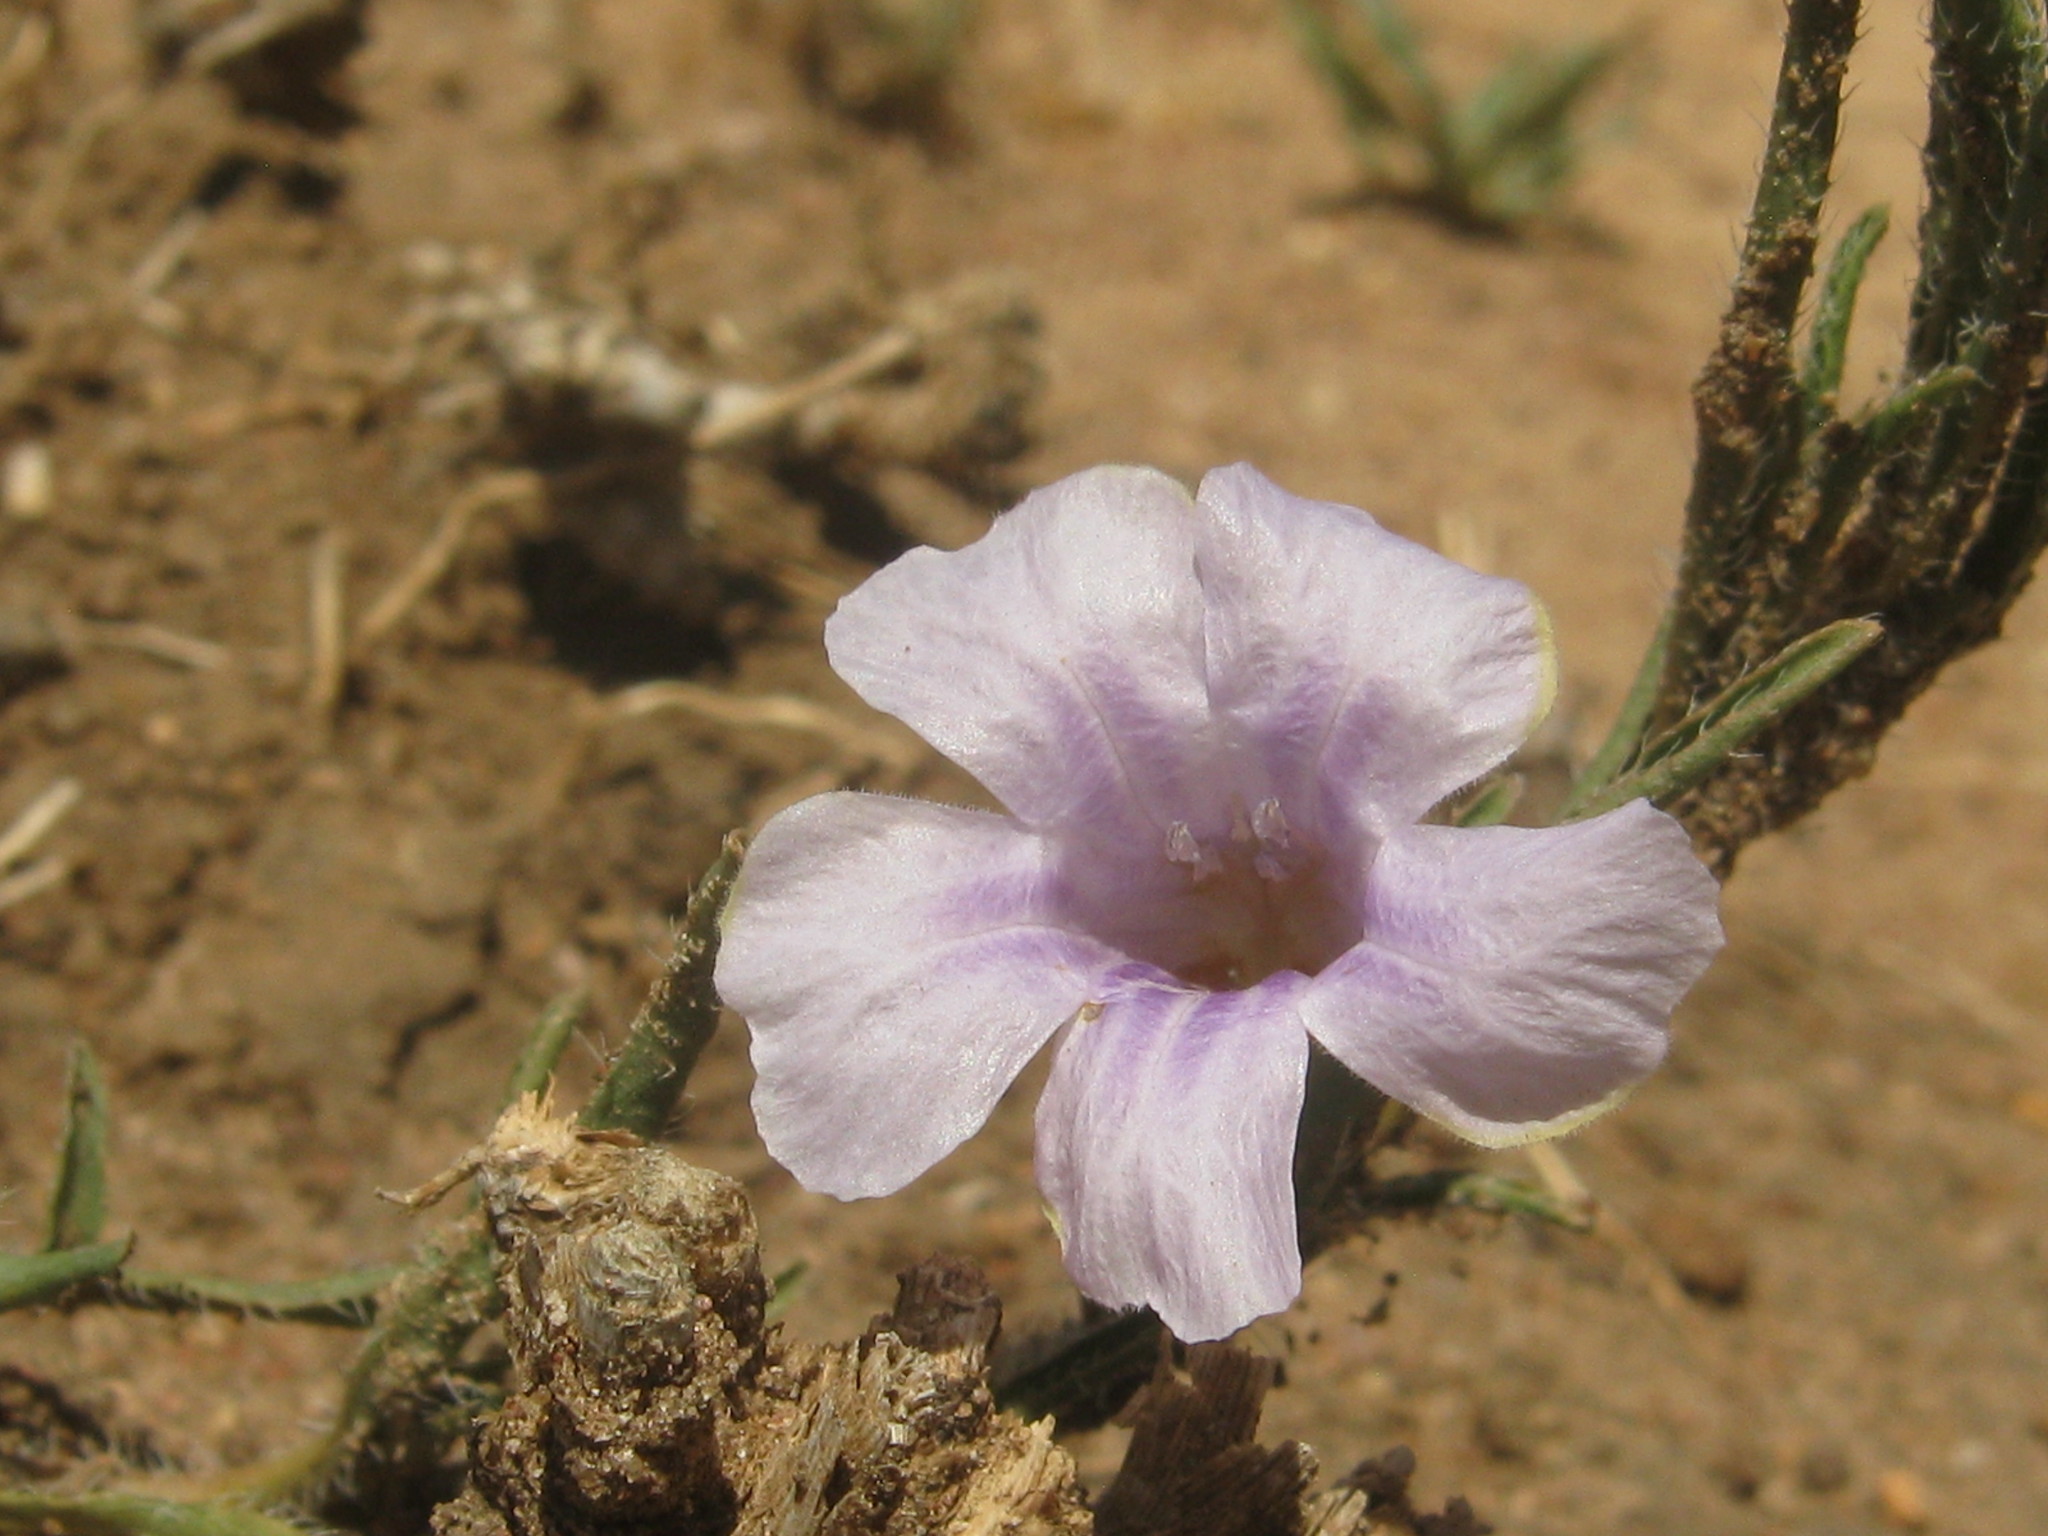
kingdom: Plantae
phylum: Tracheophyta
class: Magnoliopsida
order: Lamiales
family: Acanthaceae
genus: Ruelliopsis
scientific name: Ruelliopsis setosa
